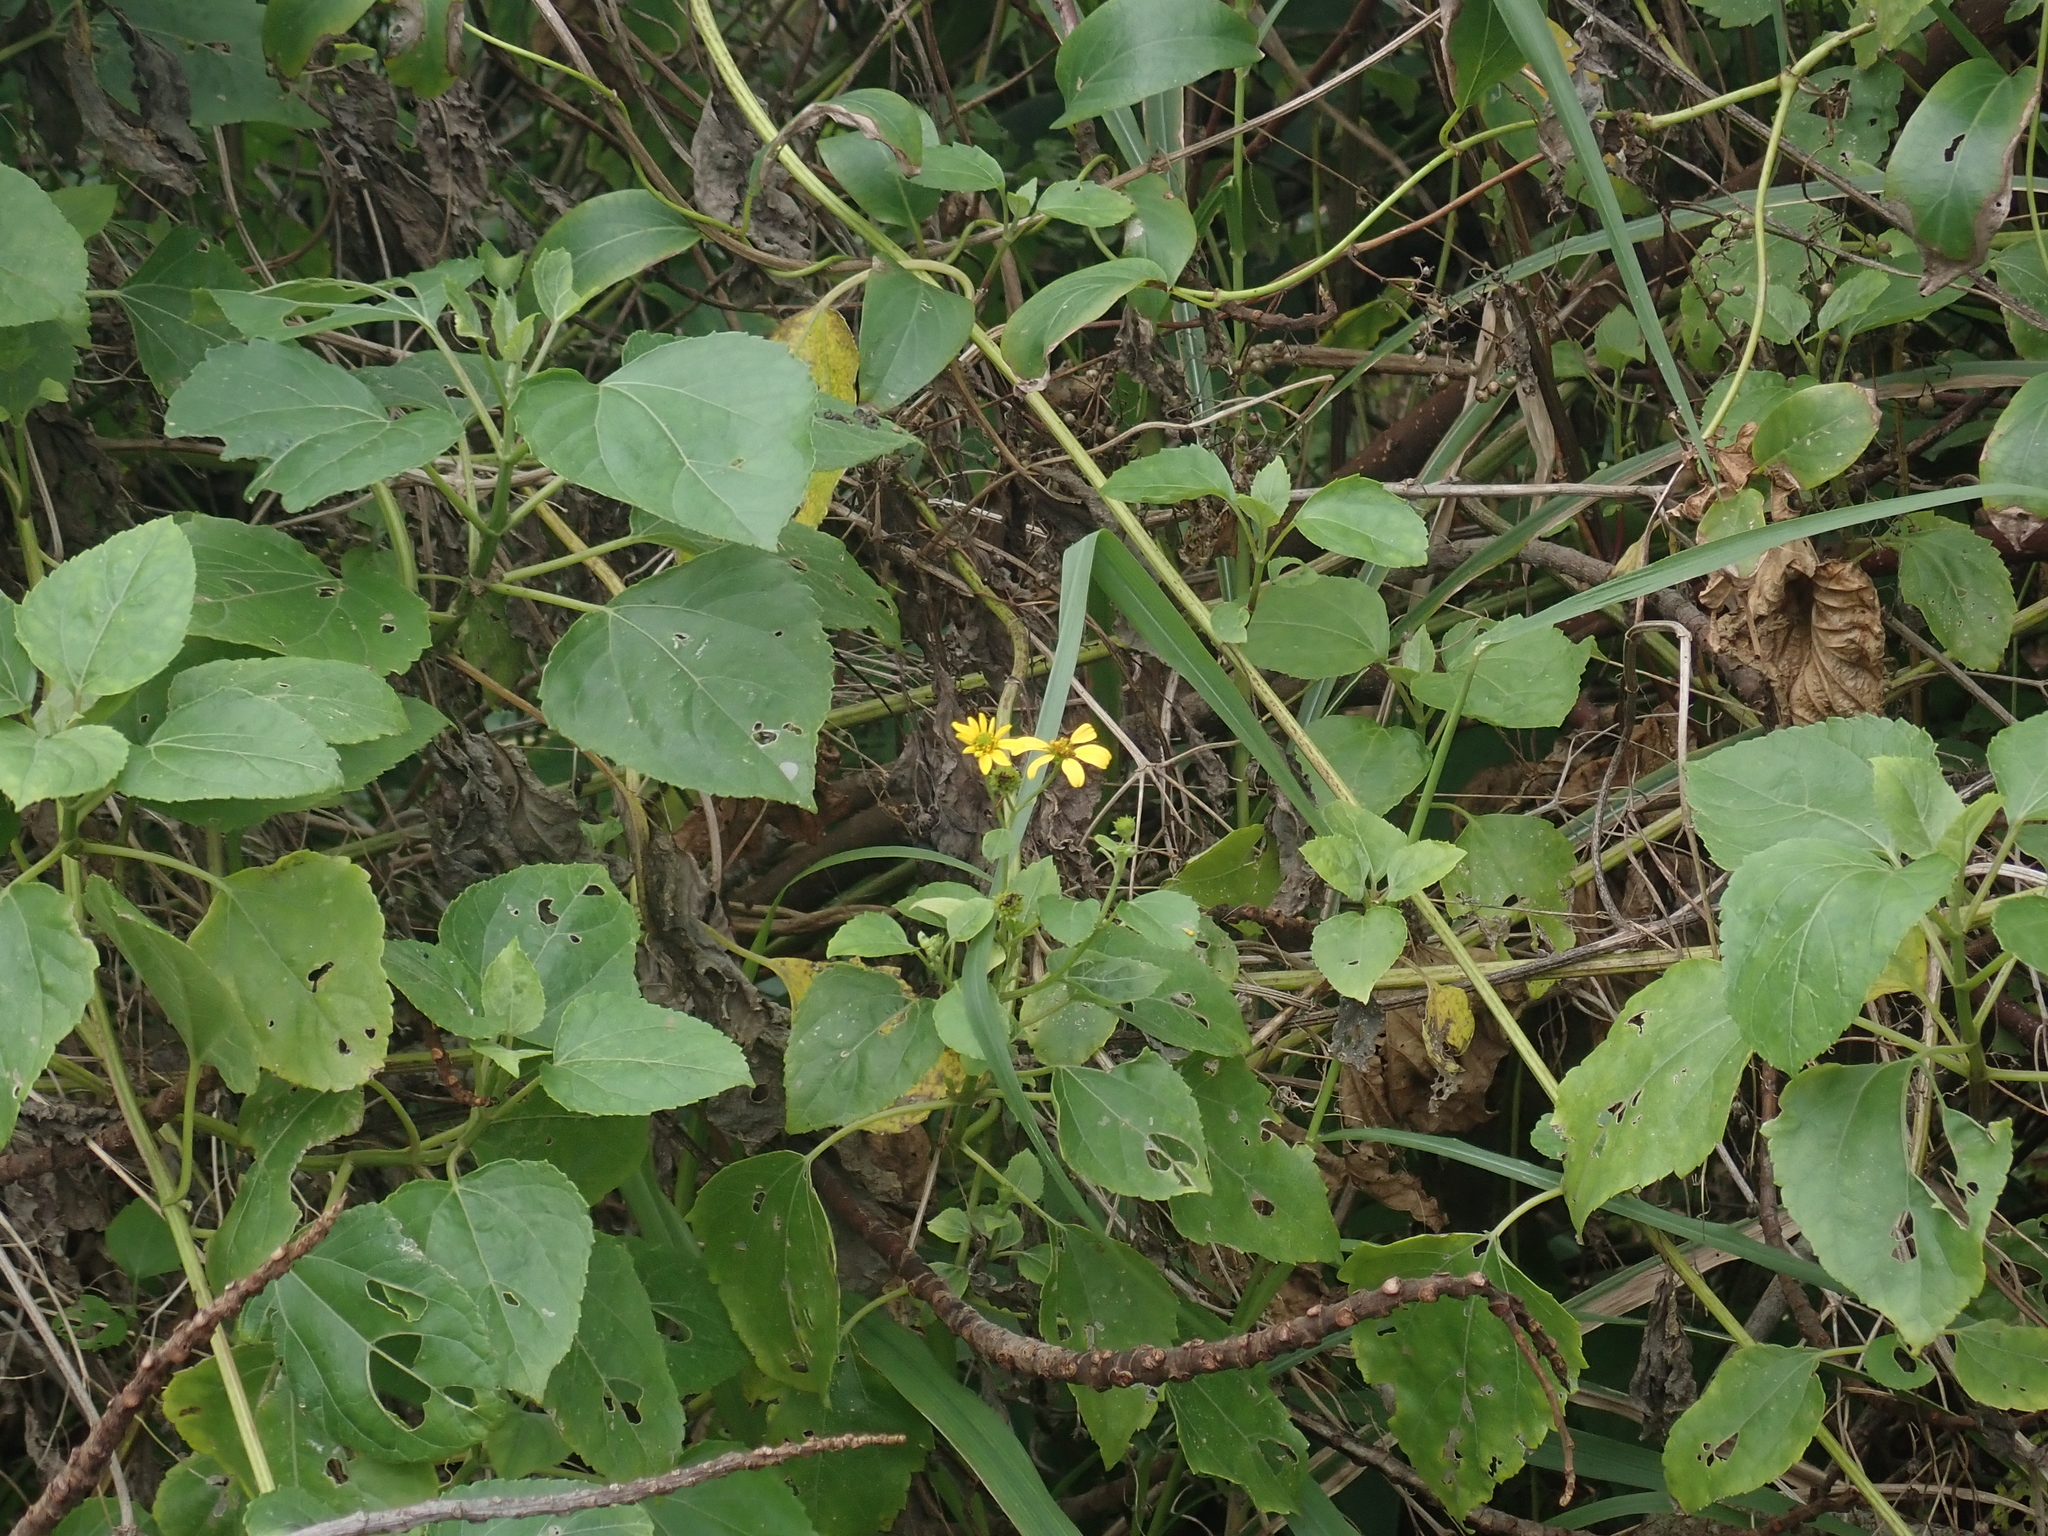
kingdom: Plantae
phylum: Tracheophyta
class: Magnoliopsida
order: Asterales
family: Asteraceae
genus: Wollastonia
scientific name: Wollastonia biflora
